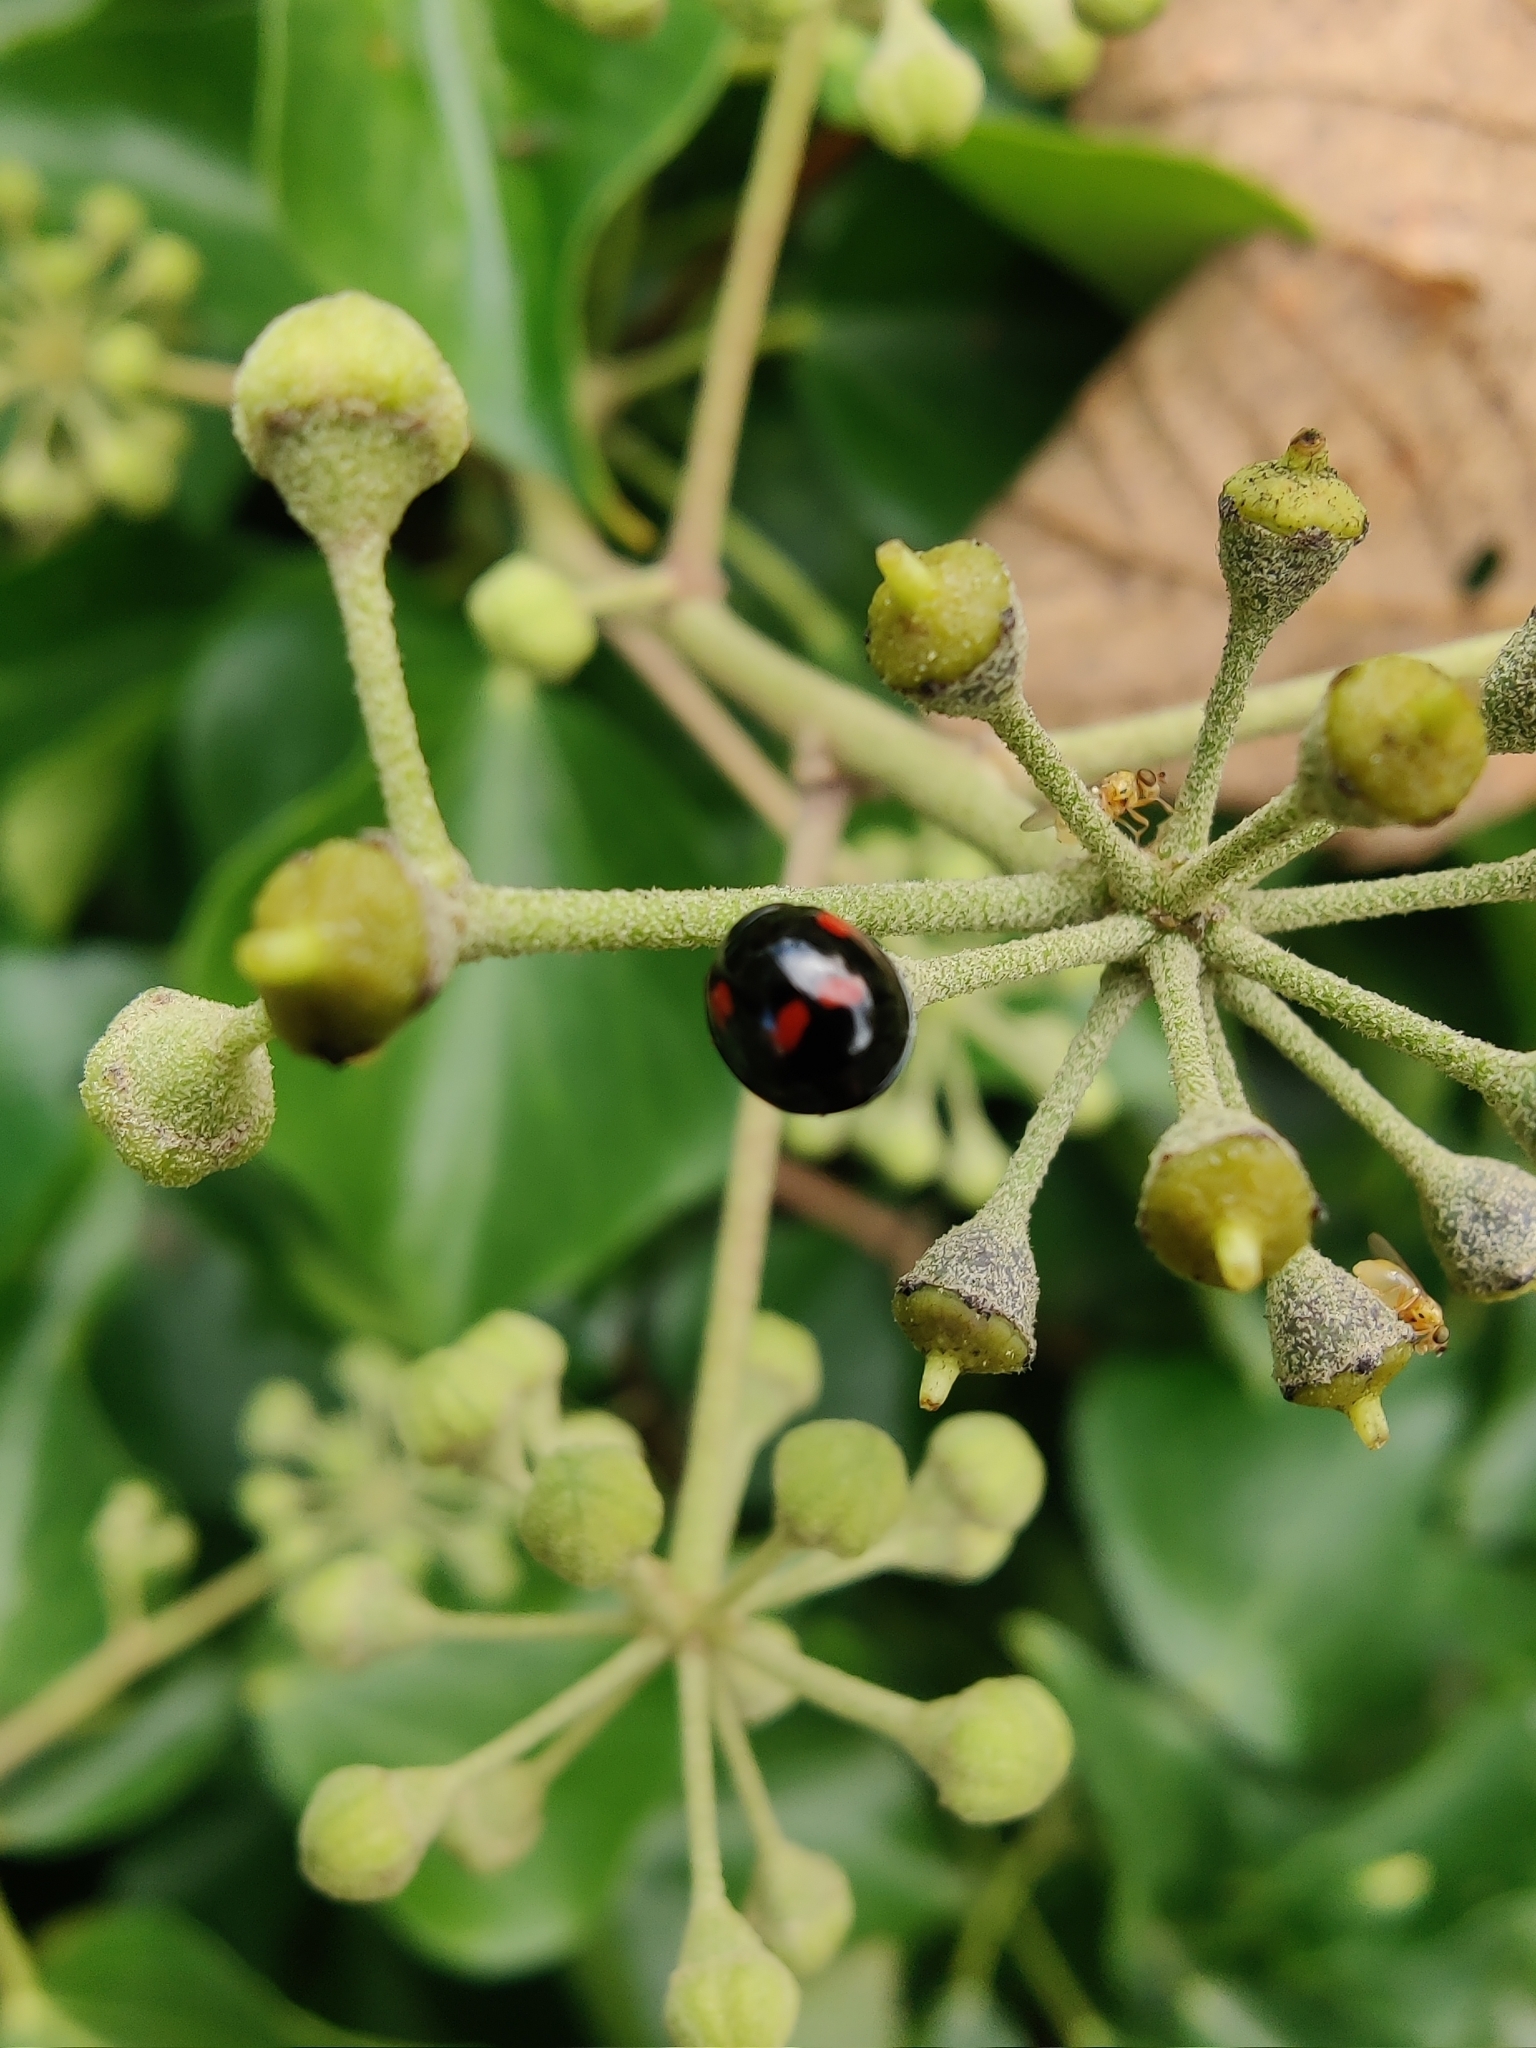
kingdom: Animalia
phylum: Arthropoda
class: Insecta
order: Coleoptera
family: Coccinellidae
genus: Brumus
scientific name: Brumus quadripustulatus
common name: Ladybird beetle
